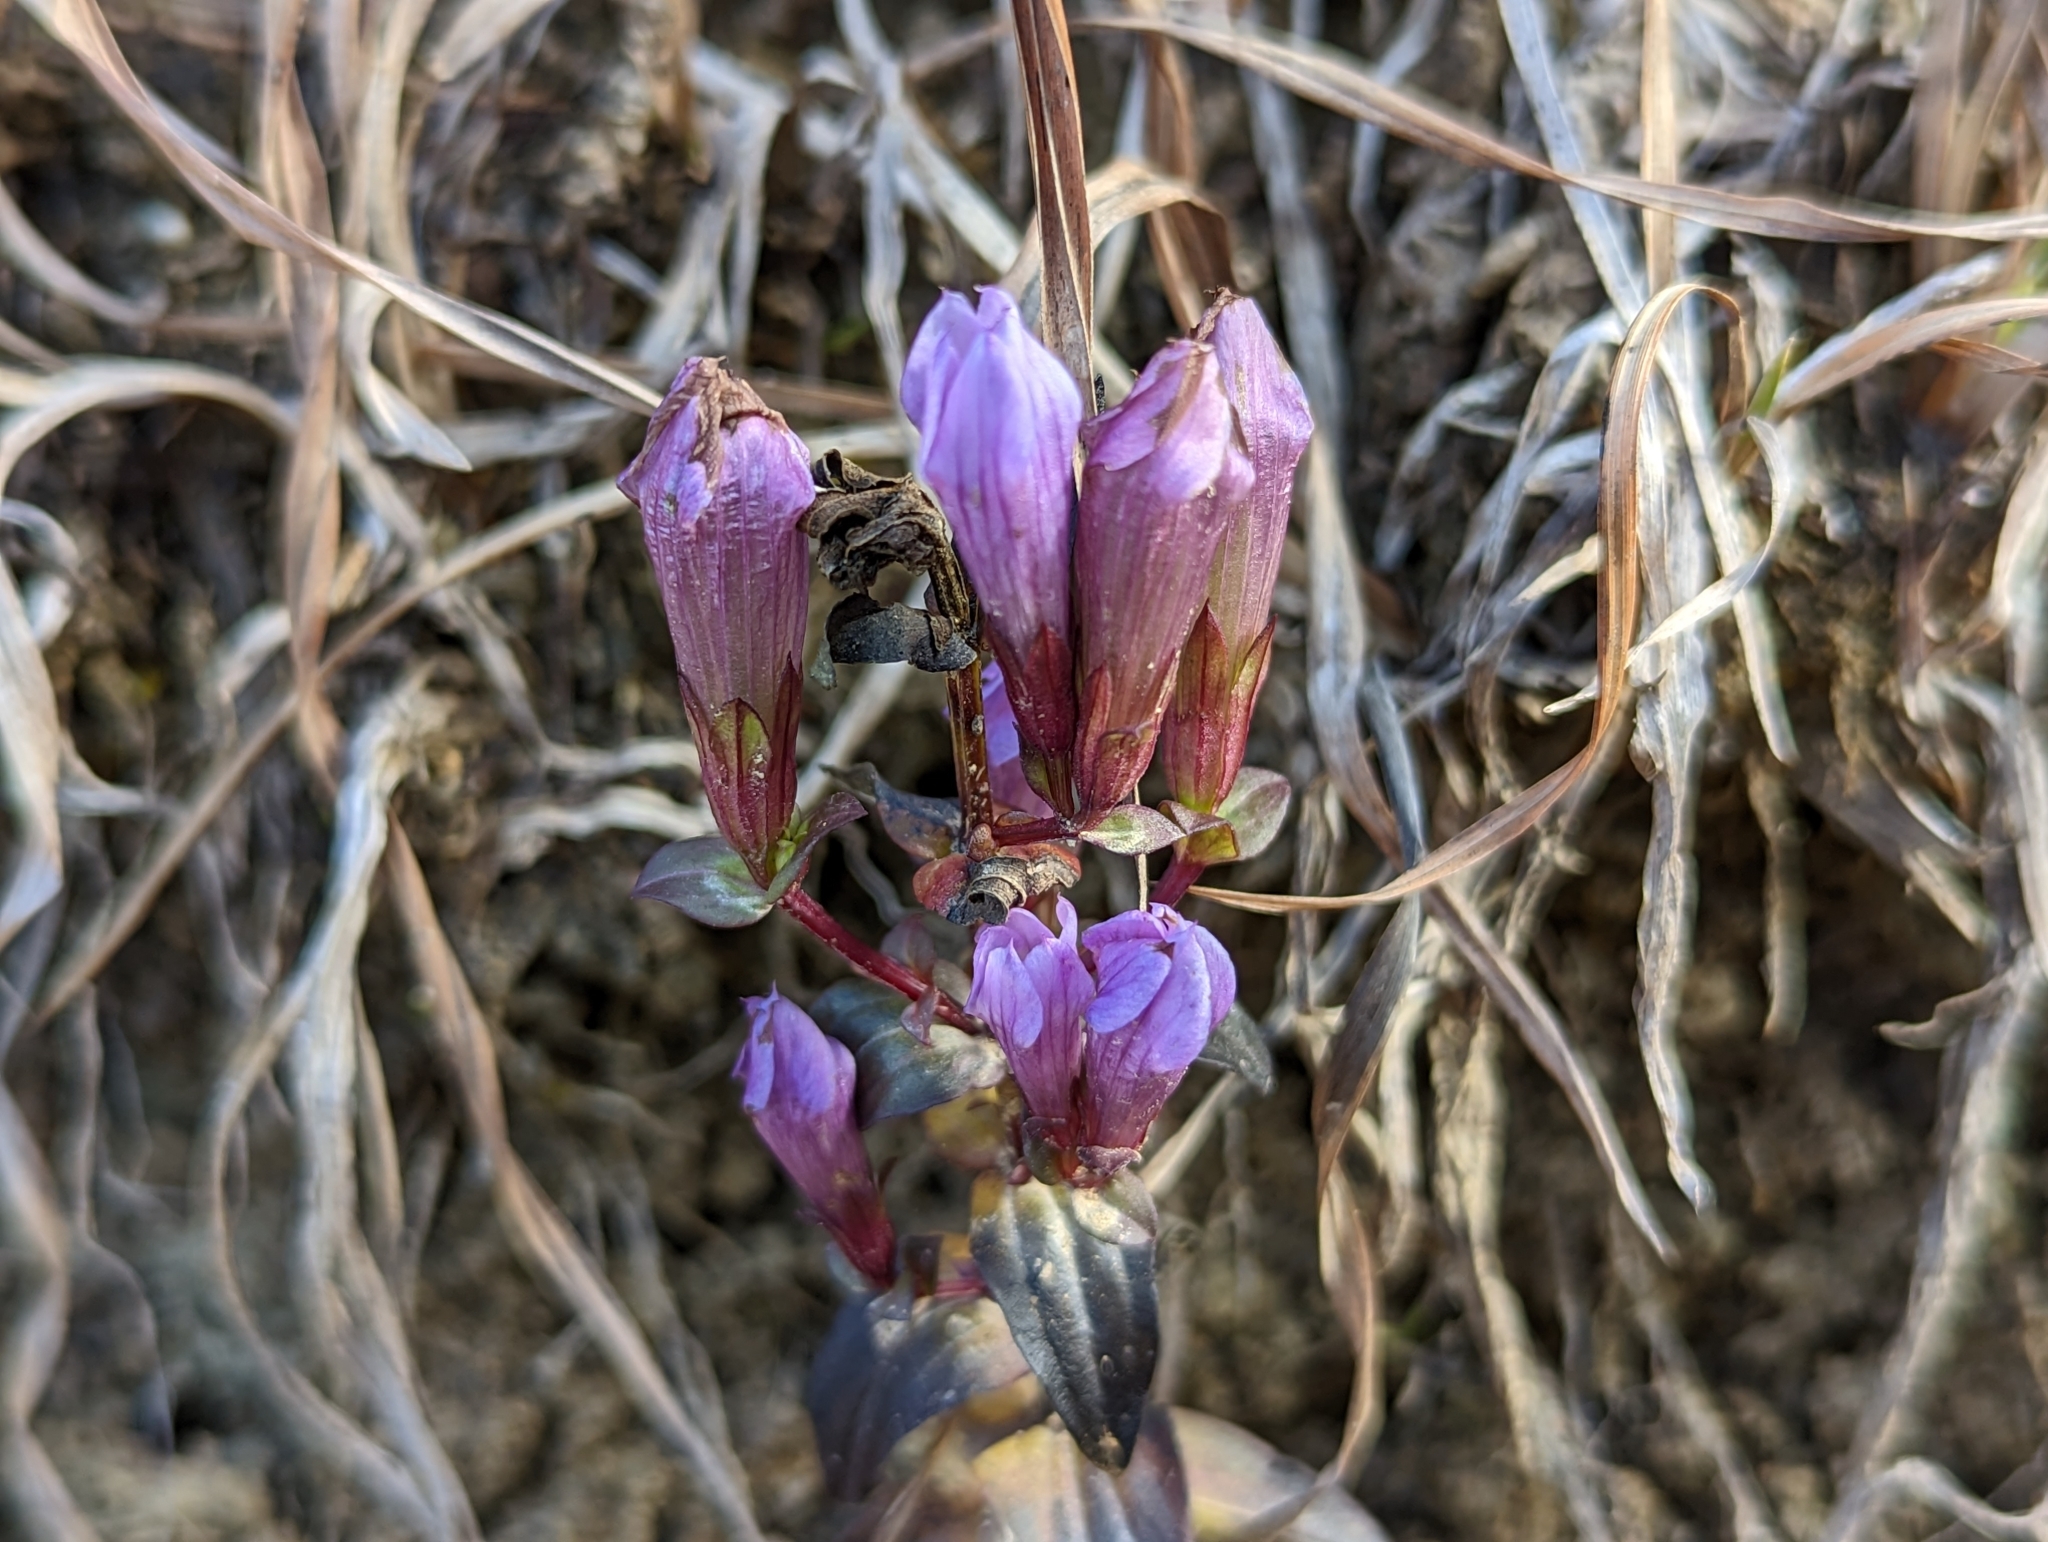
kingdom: Plantae
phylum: Tracheophyta
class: Magnoliopsida
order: Gentianales
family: Gentianaceae
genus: Gentianella
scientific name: Gentianella quinquefolia
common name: Agueweed
